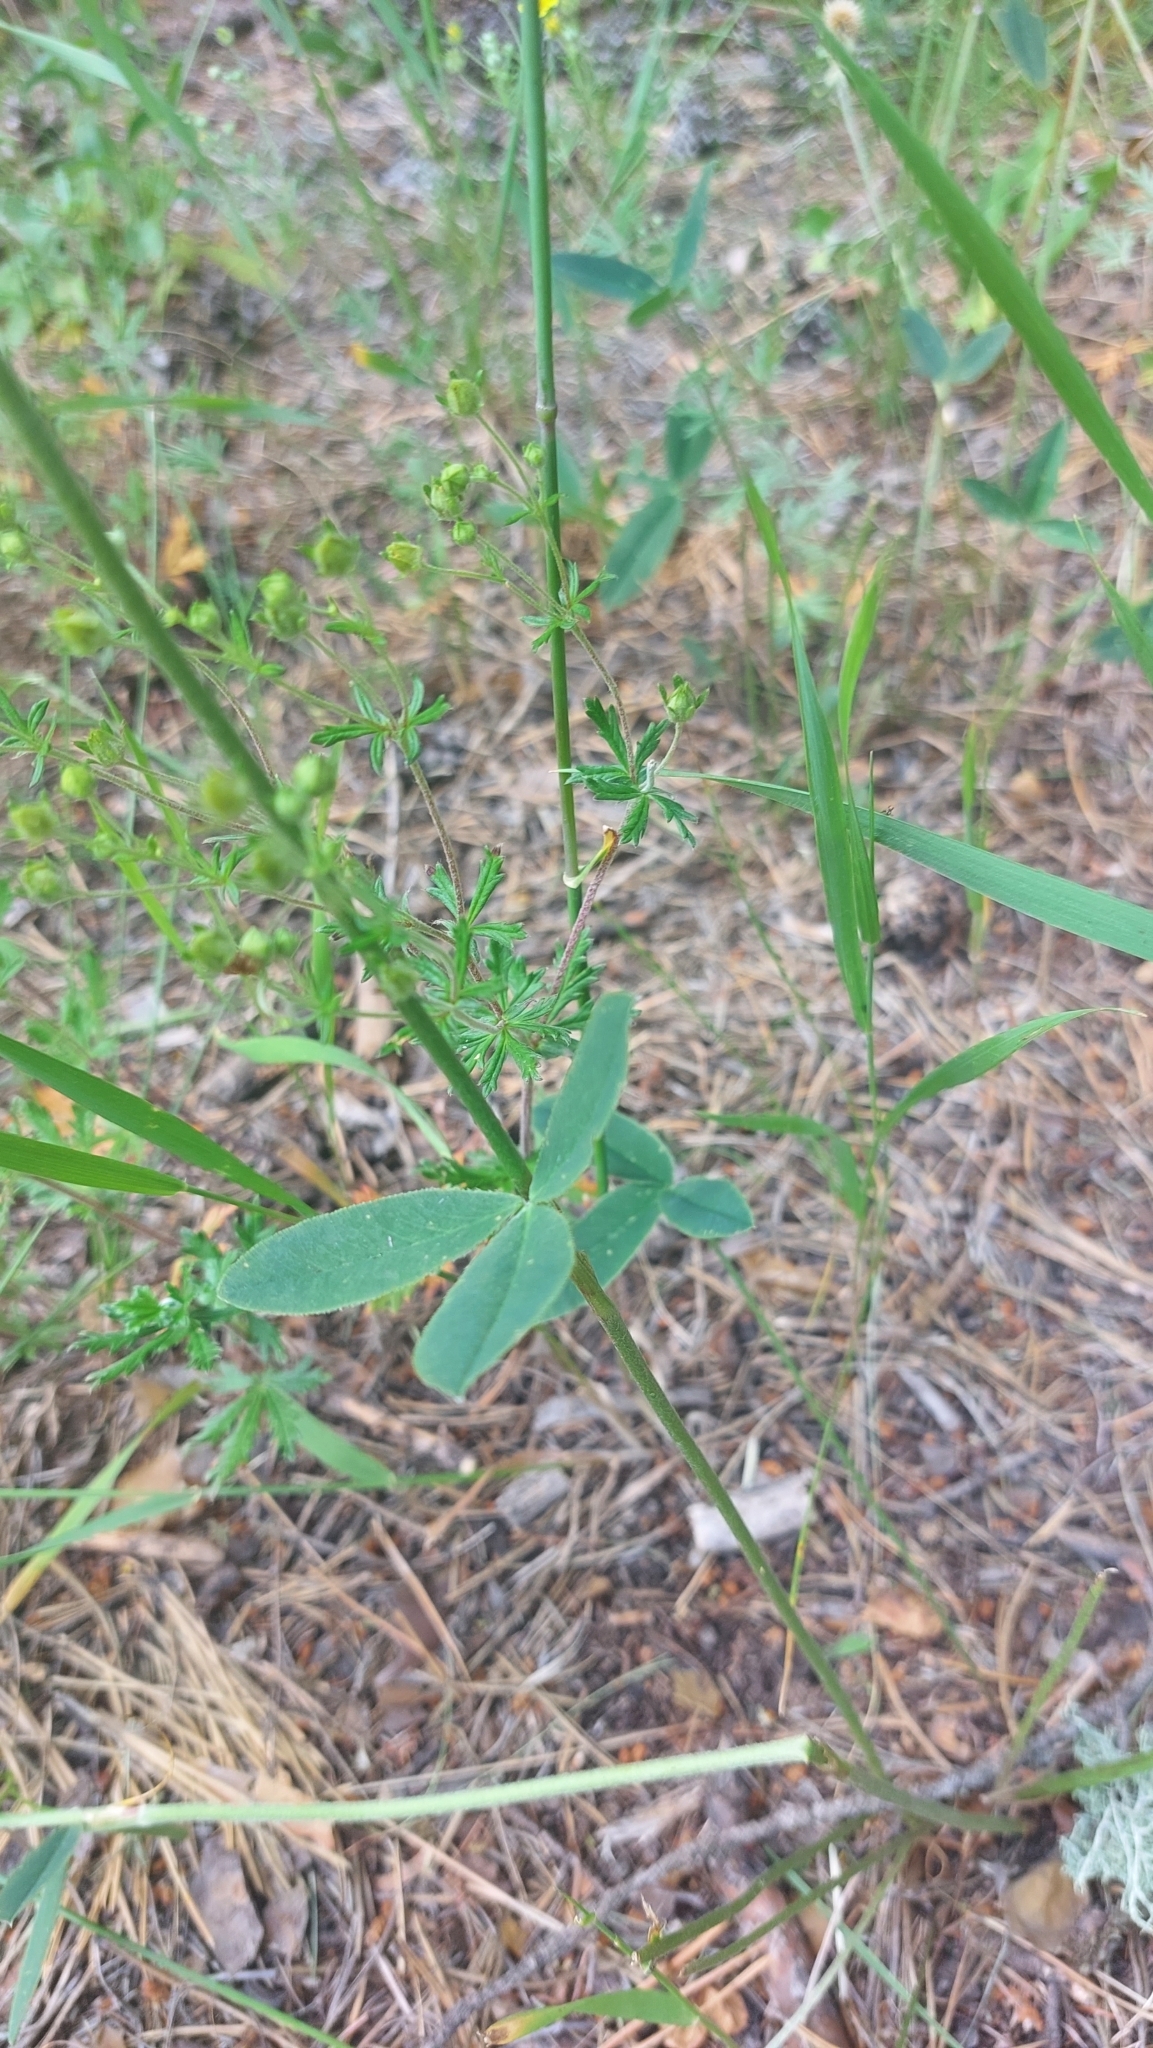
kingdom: Plantae
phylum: Tracheophyta
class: Magnoliopsida
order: Fabales
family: Fabaceae
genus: Trifolium
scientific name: Trifolium montanum
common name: Mountain clover
